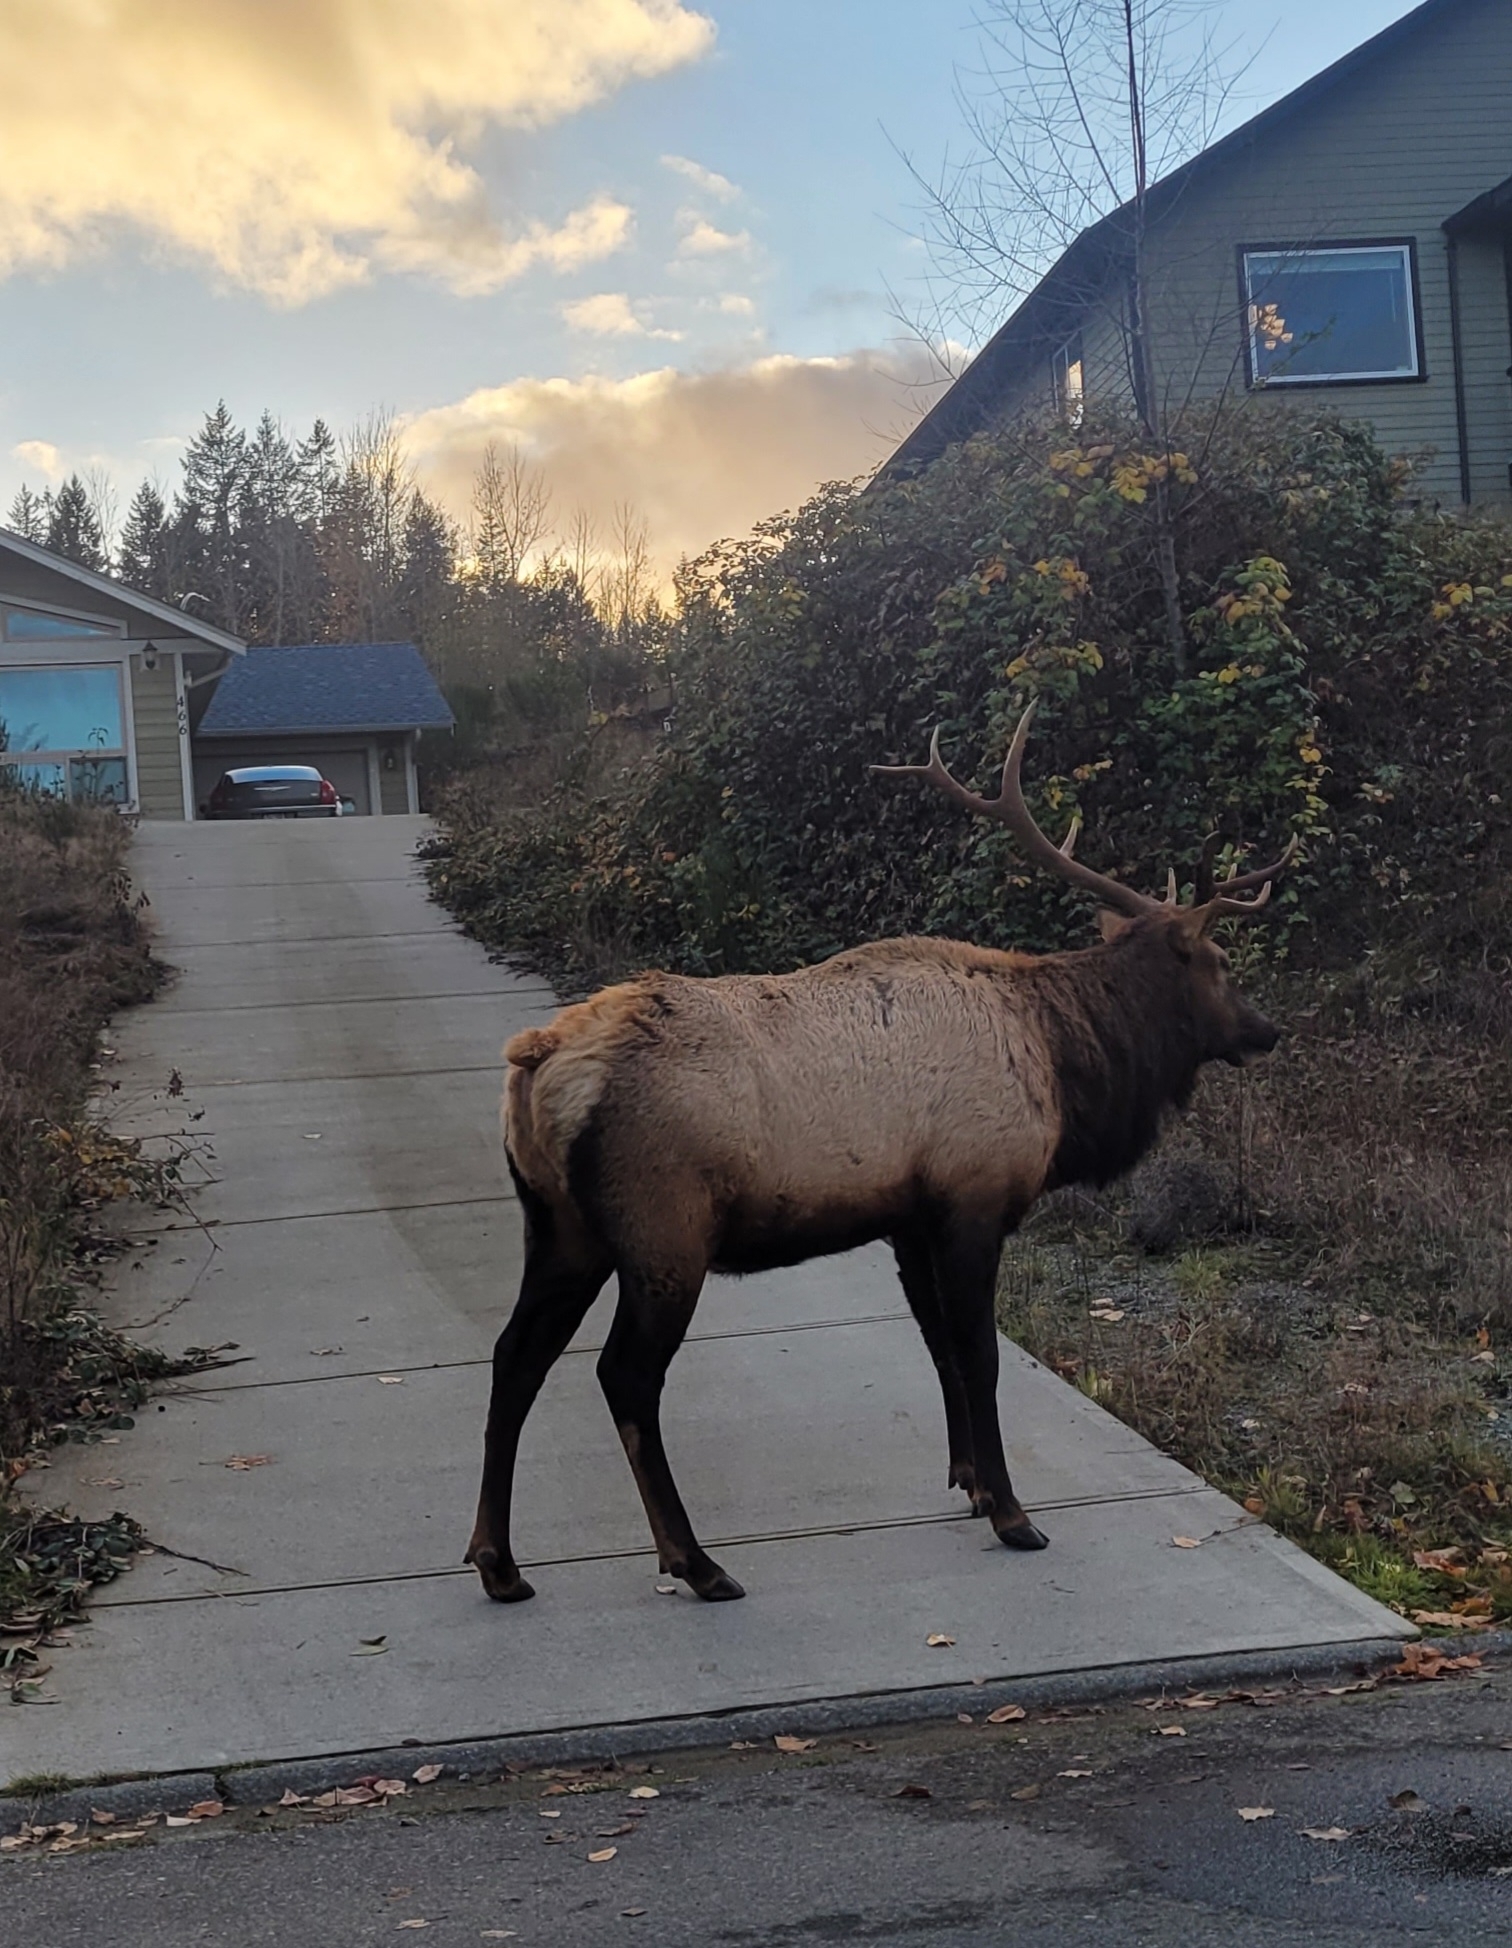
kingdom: Animalia
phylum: Chordata
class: Mammalia
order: Artiodactyla
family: Cervidae
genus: Cervus
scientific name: Cervus elaphus
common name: Red deer
